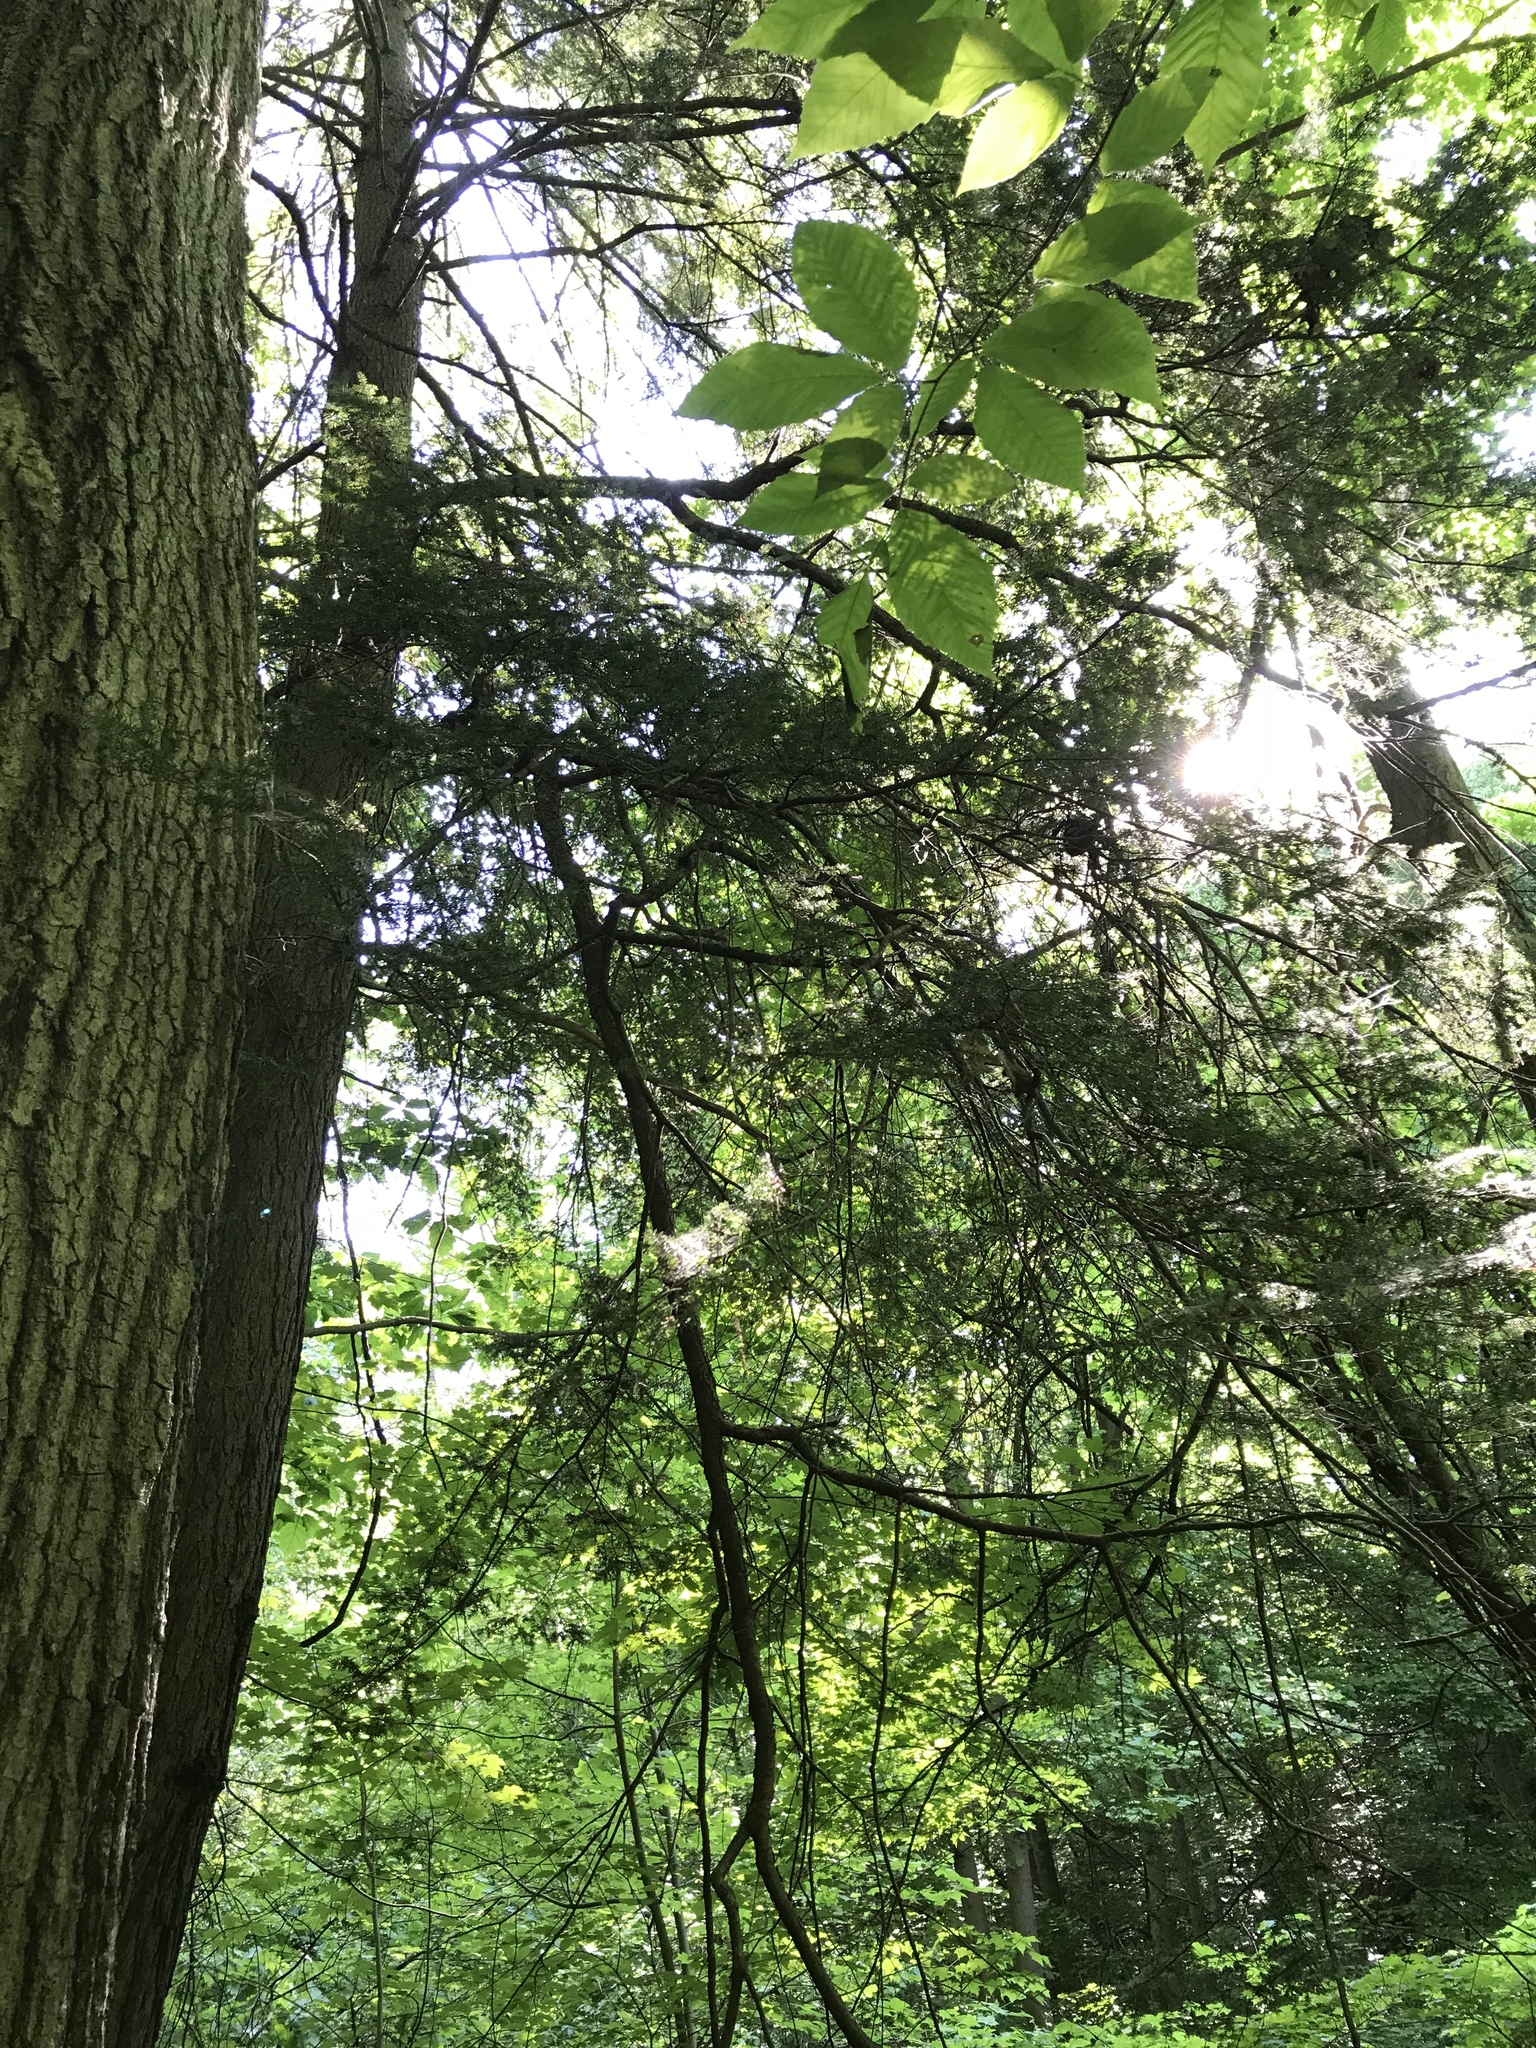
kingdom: Plantae
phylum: Tracheophyta
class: Pinopsida
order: Pinales
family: Pinaceae
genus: Tsuga
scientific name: Tsuga canadensis
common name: Eastern hemlock
